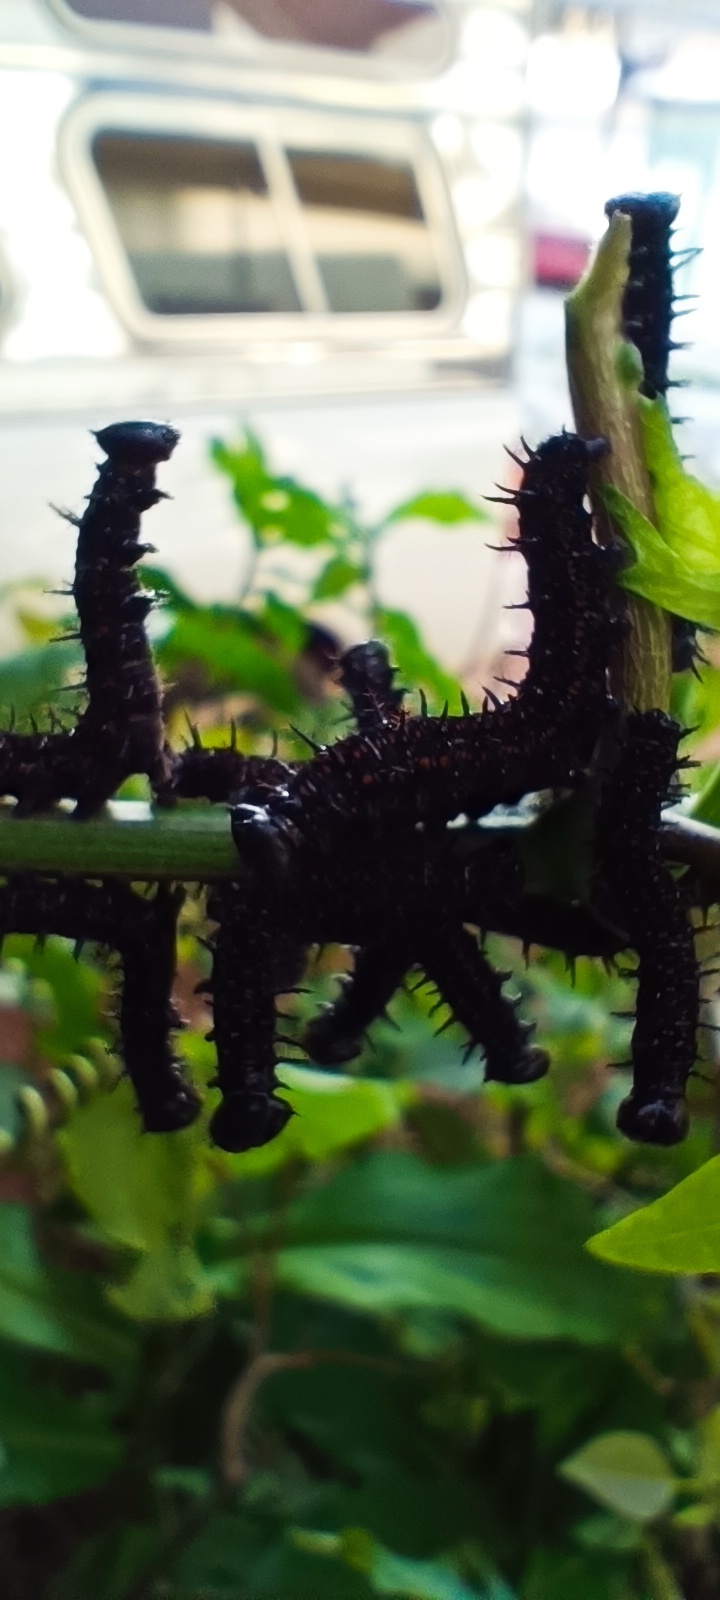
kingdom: Animalia
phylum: Arthropoda
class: Insecta
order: Lepidoptera
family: Nymphalidae
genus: Dione
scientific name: Dione juno
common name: Juno silverspot
